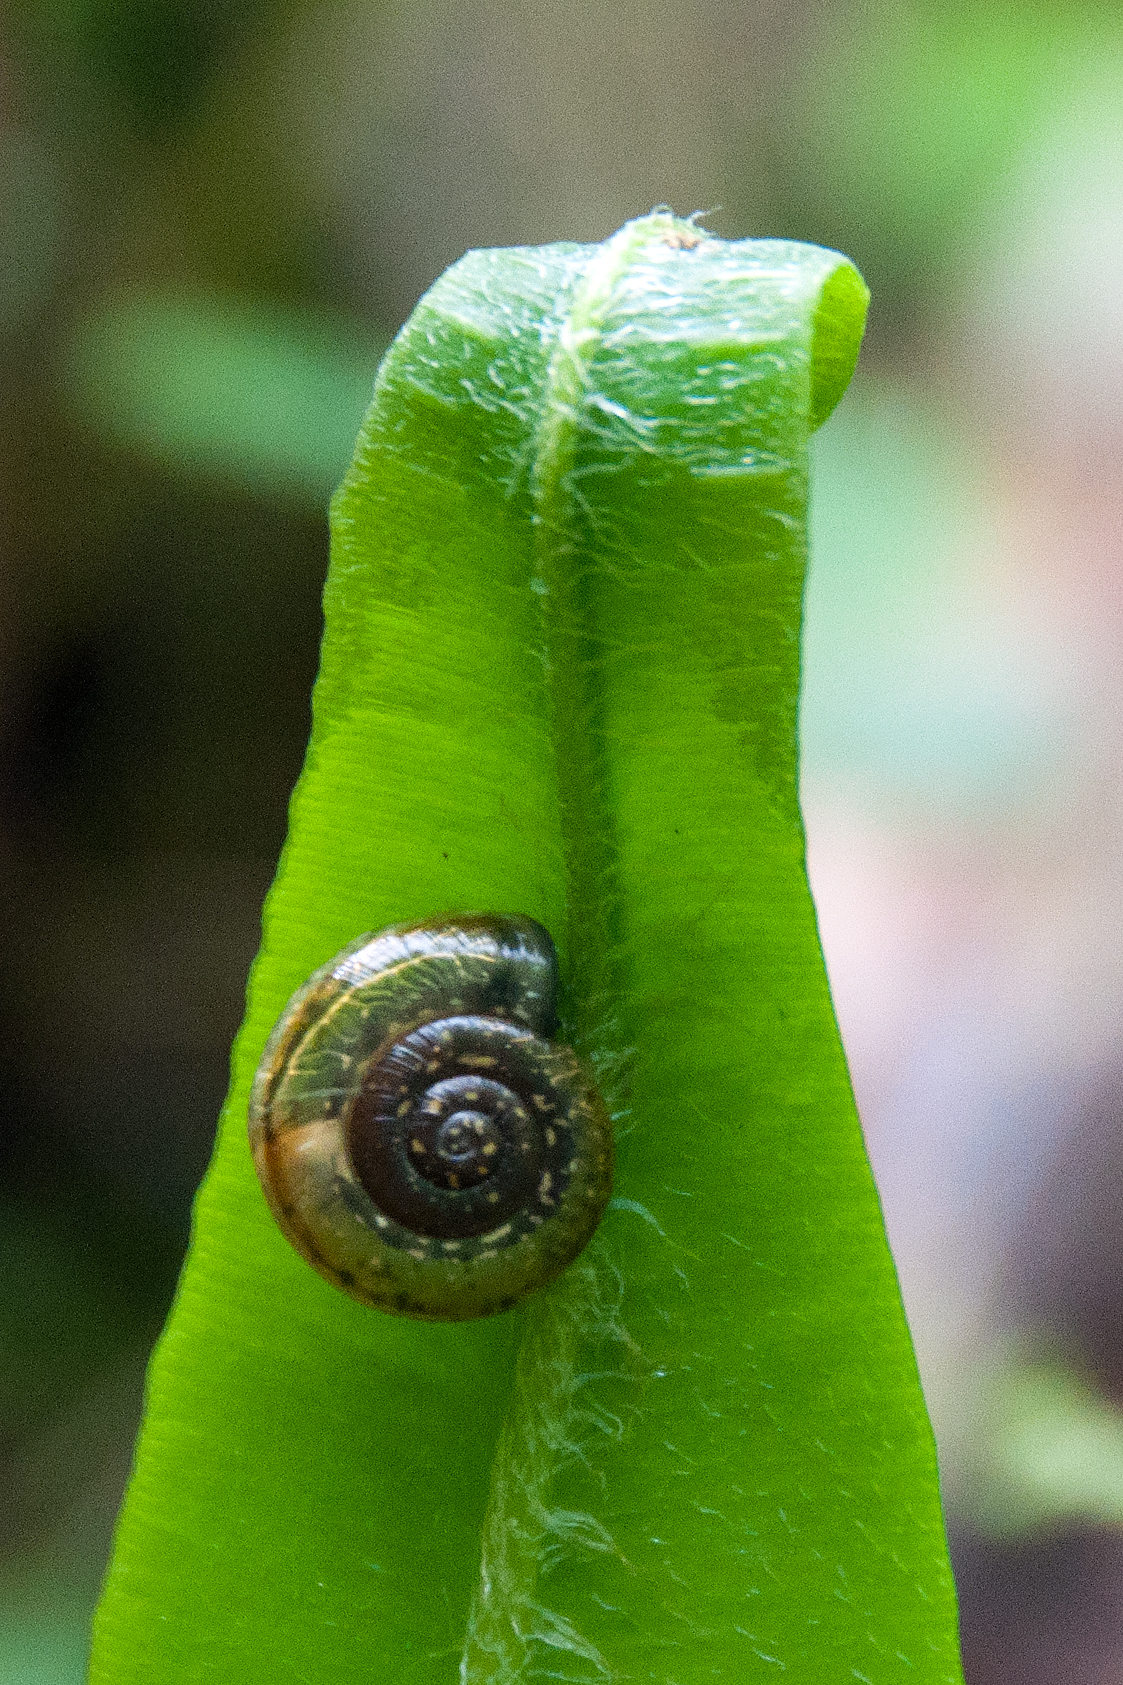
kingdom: Animalia
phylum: Mollusca
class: Gastropoda
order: Stylommatophora
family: Helicidae
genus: Campylaea
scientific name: Campylaea illyrica
